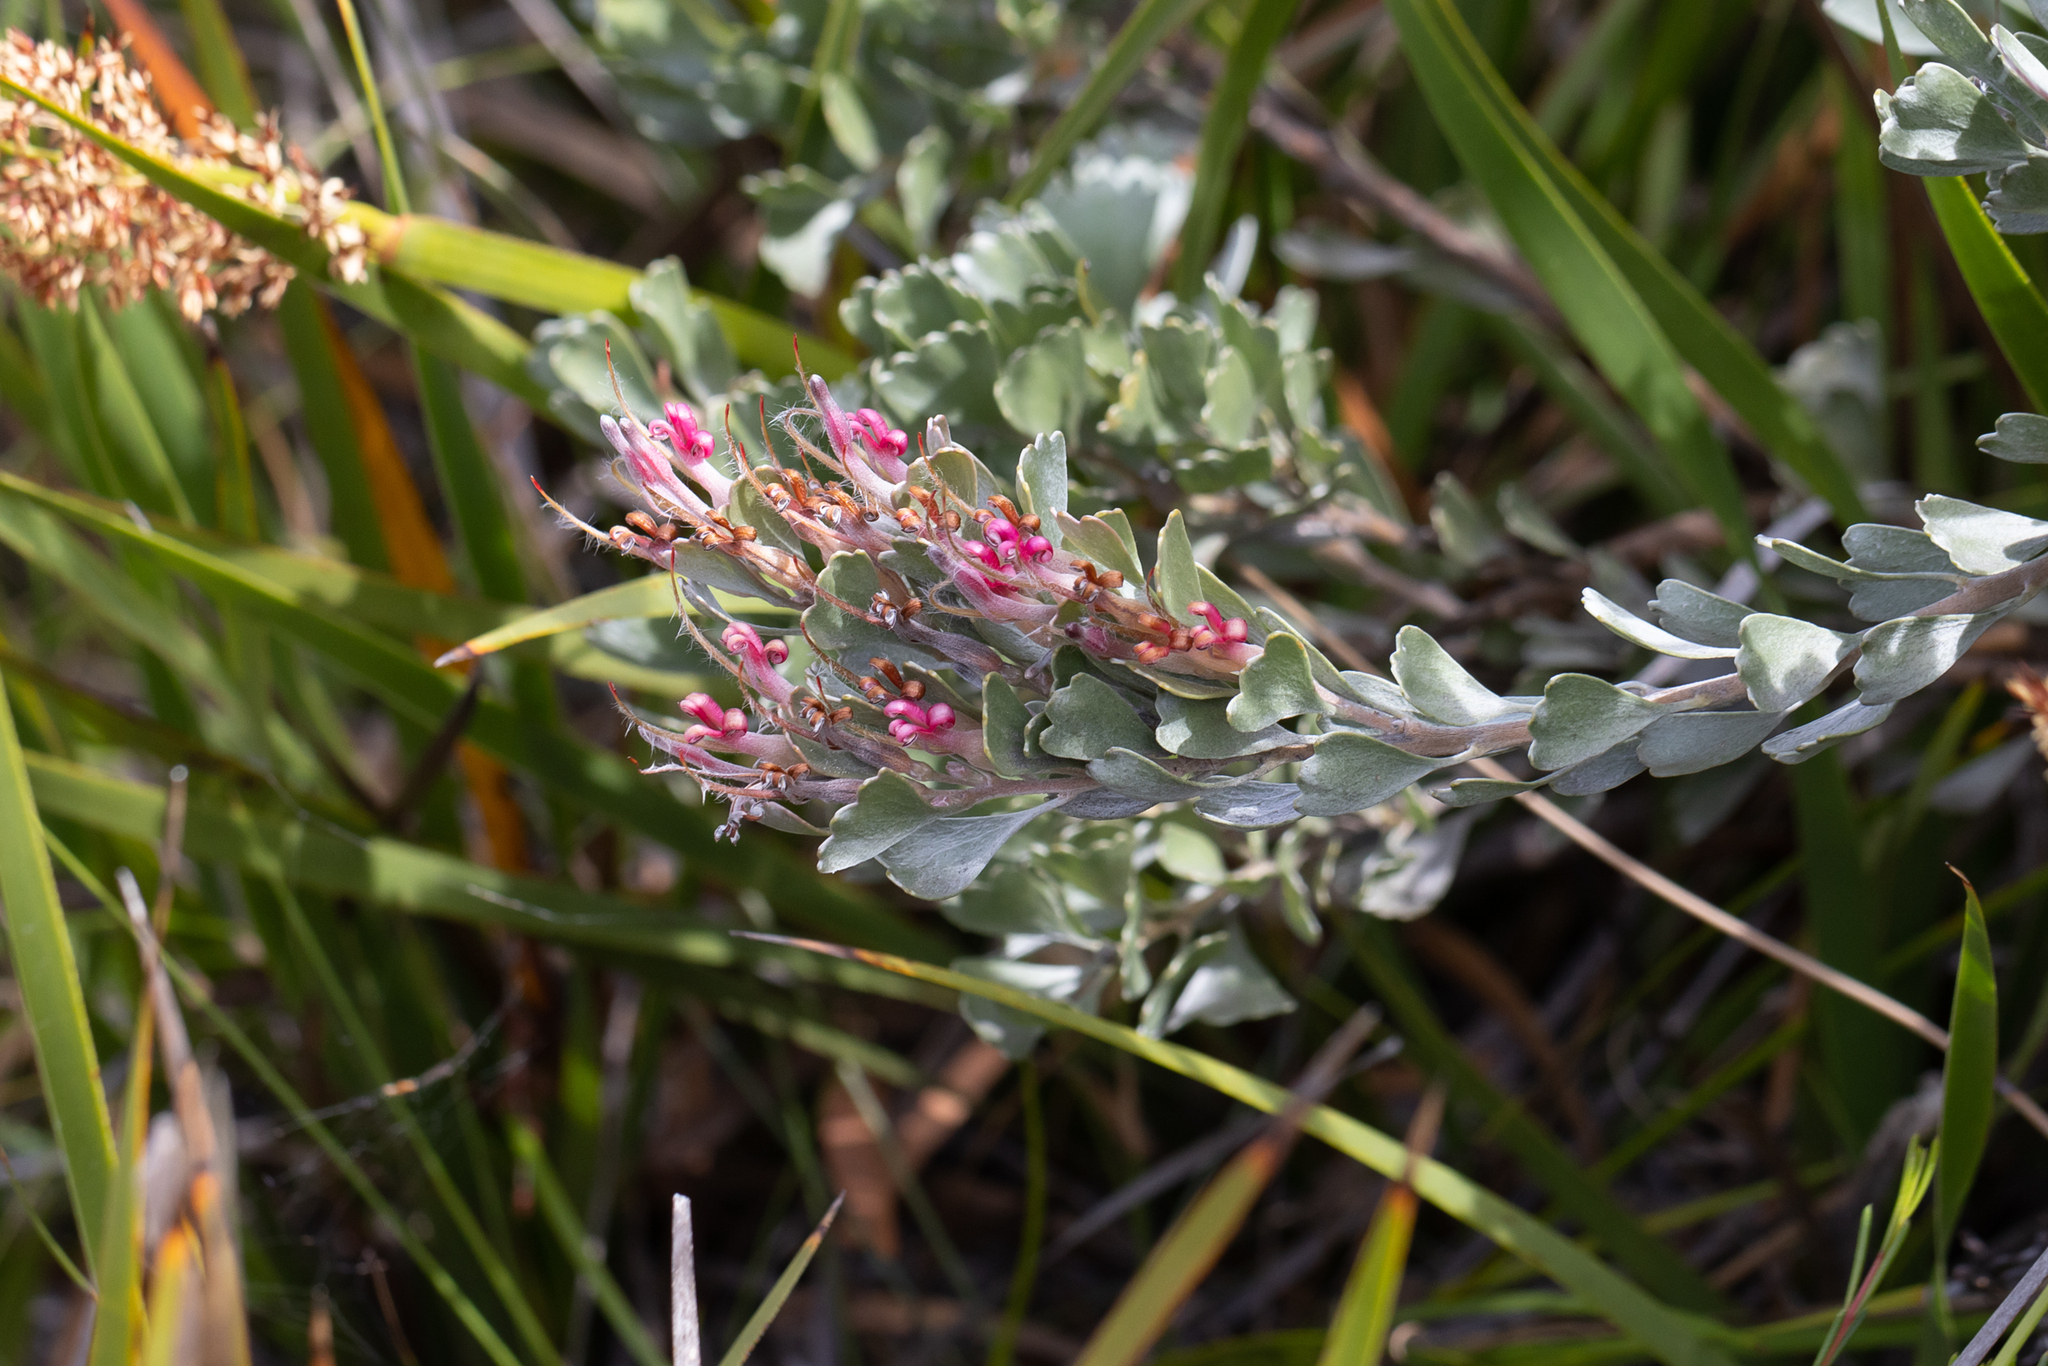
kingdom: Plantae
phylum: Tracheophyta
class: Magnoliopsida
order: Proteales
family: Proteaceae
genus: Adenanthos
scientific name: Adenanthos cuneatus
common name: Flamebush
